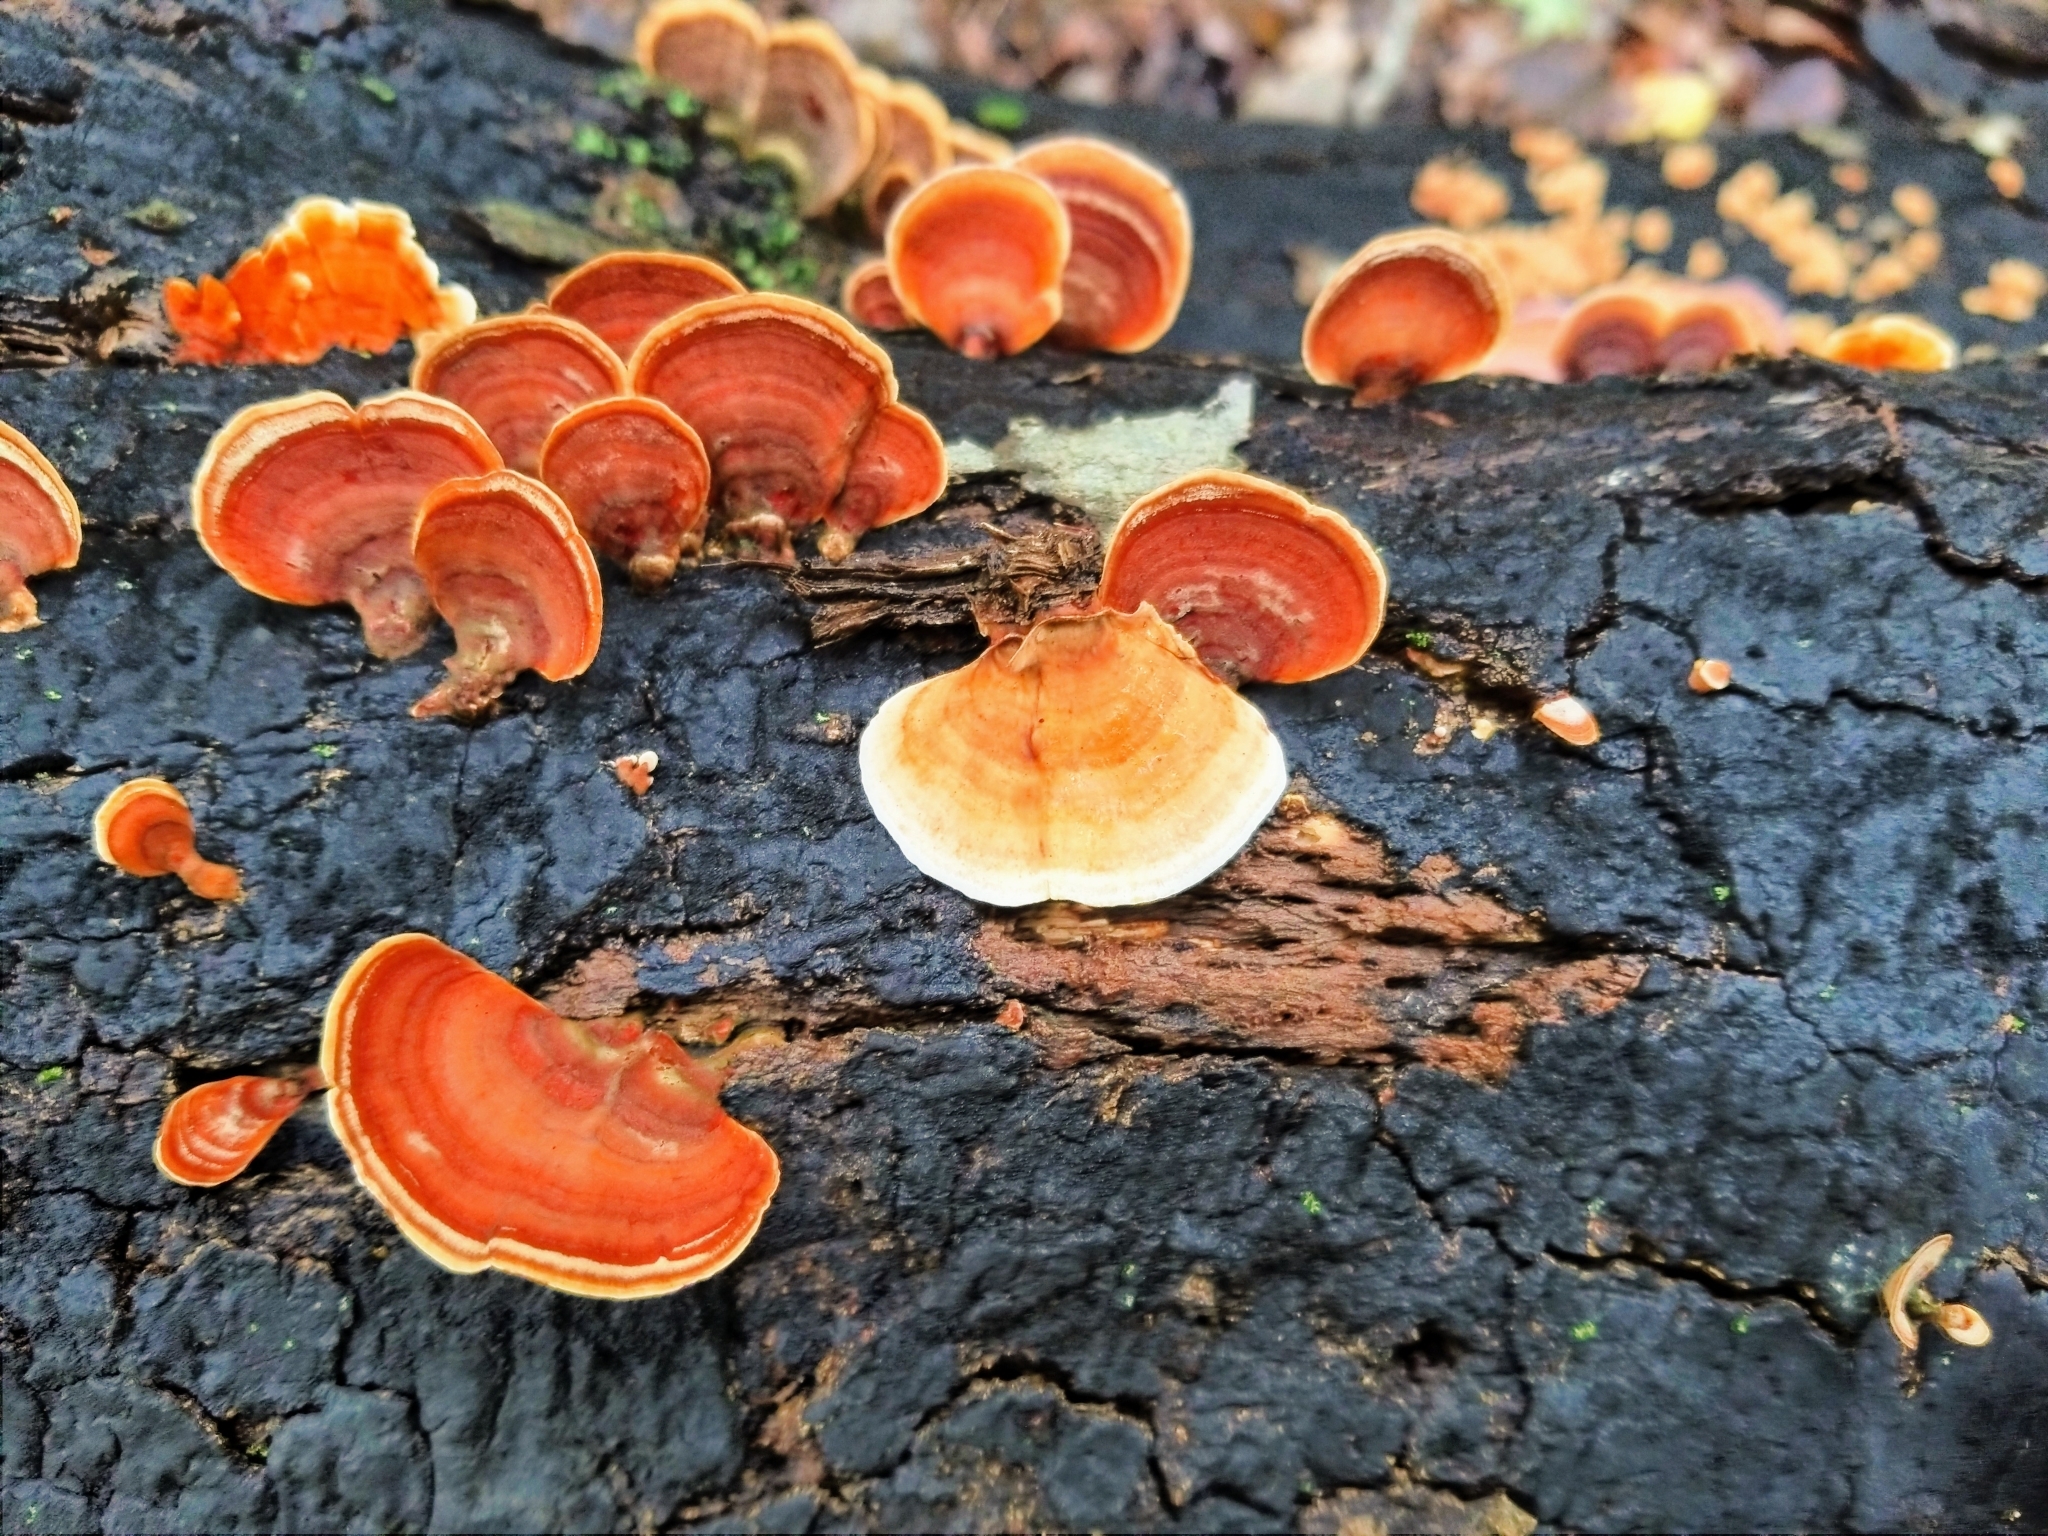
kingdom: Fungi
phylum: Basidiomycota
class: Agaricomycetes
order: Polyporales
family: Polyporaceae
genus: Trametes
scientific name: Trametes cinnabarina
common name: Northern cinnabar polypore
